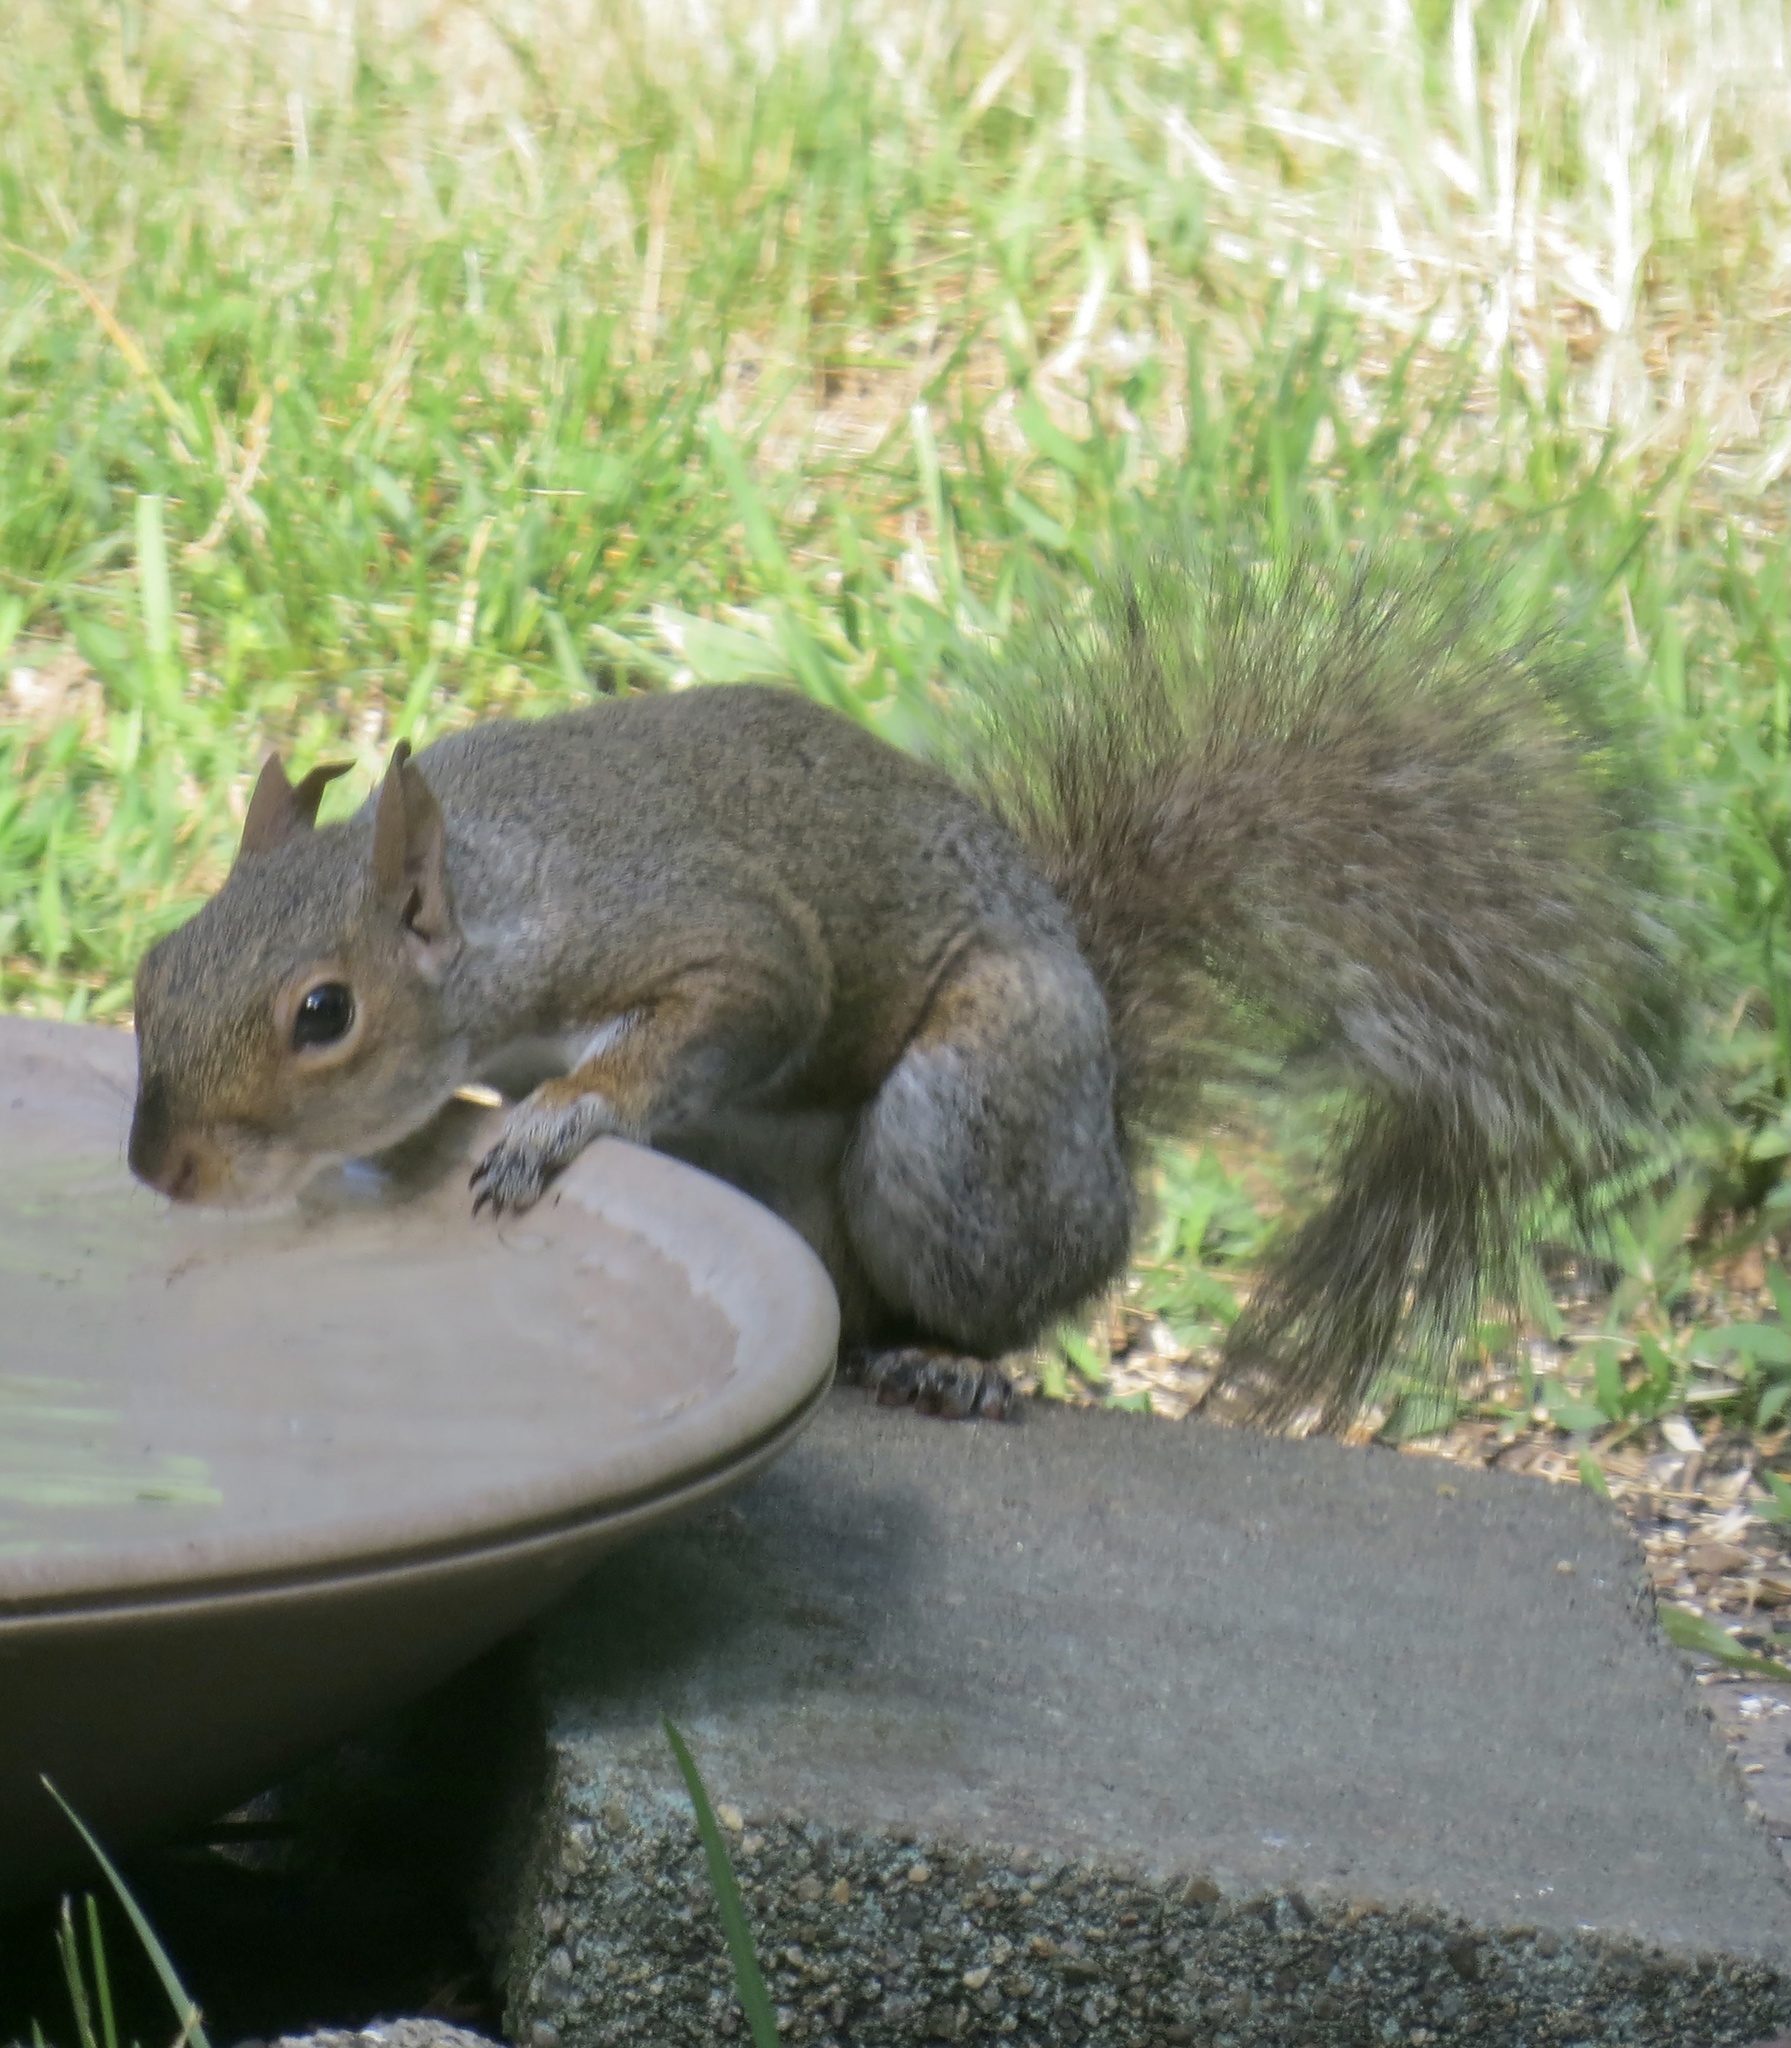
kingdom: Animalia
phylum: Chordata
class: Mammalia
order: Rodentia
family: Sciuridae
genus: Sciurus
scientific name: Sciurus carolinensis
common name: Eastern gray squirrel
